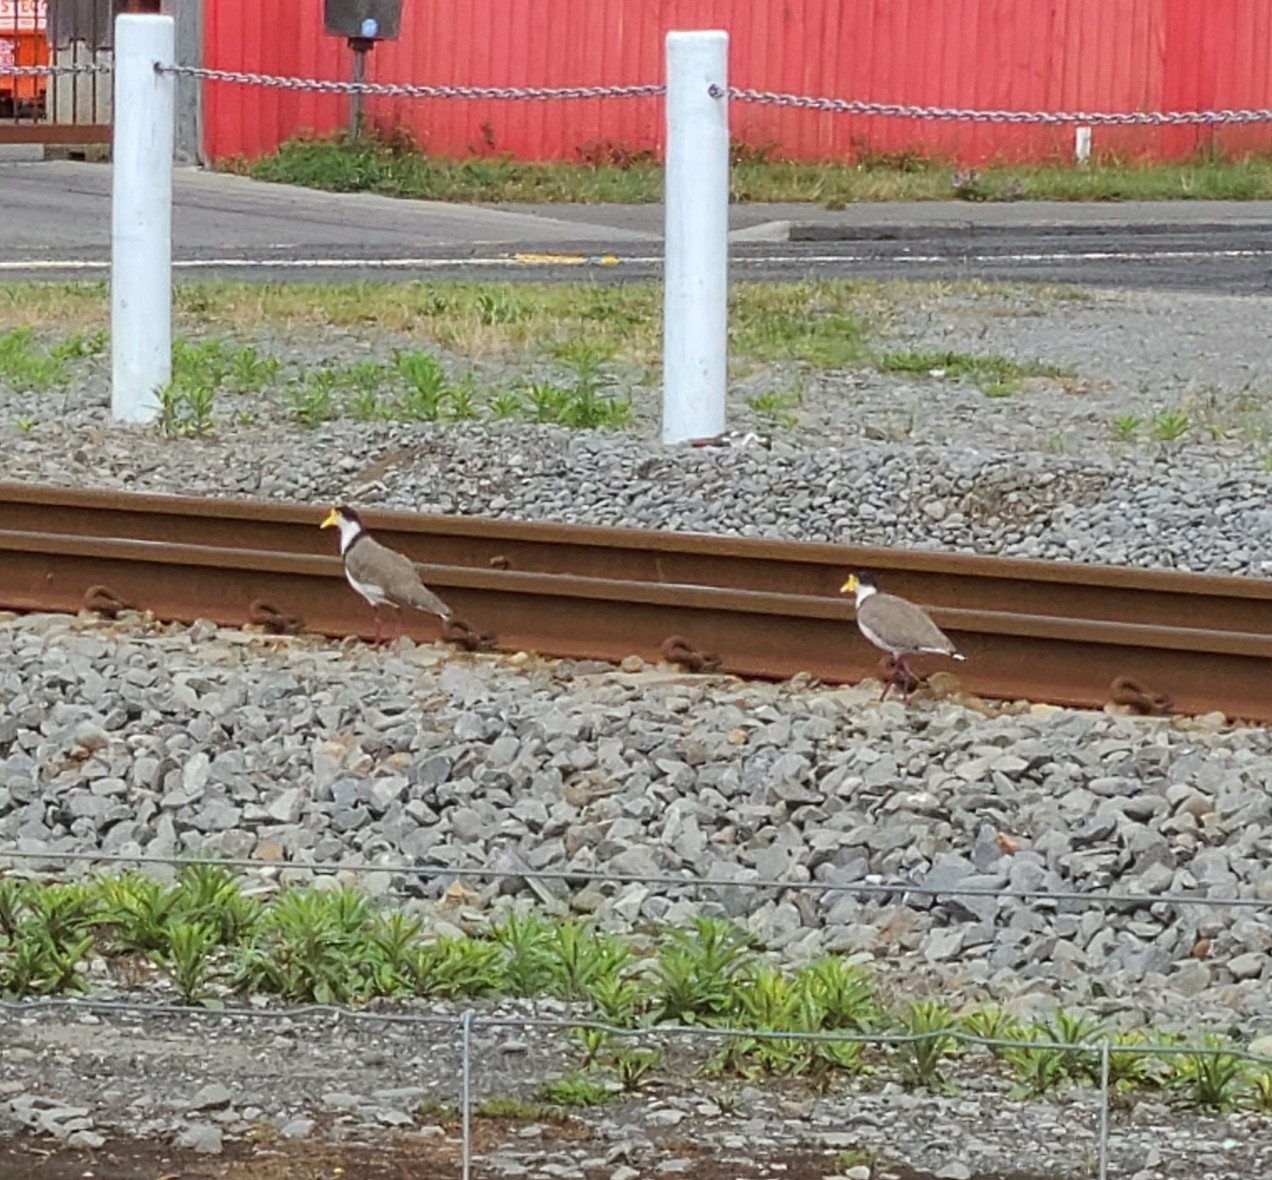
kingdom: Animalia
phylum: Chordata
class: Aves
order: Charadriiformes
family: Charadriidae
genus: Vanellus
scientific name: Vanellus miles
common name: Masked lapwing
